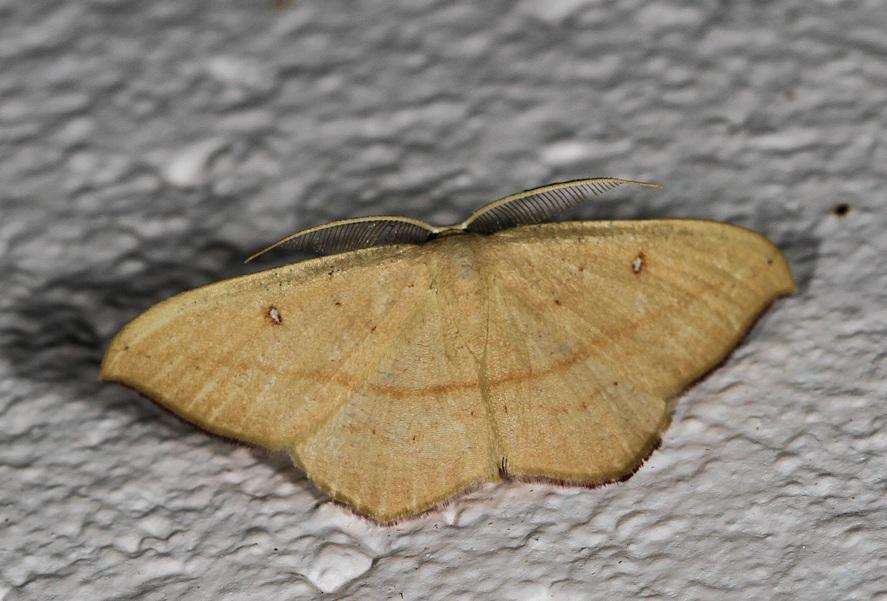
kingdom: Animalia
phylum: Arthropoda
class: Insecta
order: Lepidoptera
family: Geometridae
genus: Traminda
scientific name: Traminda falcata
